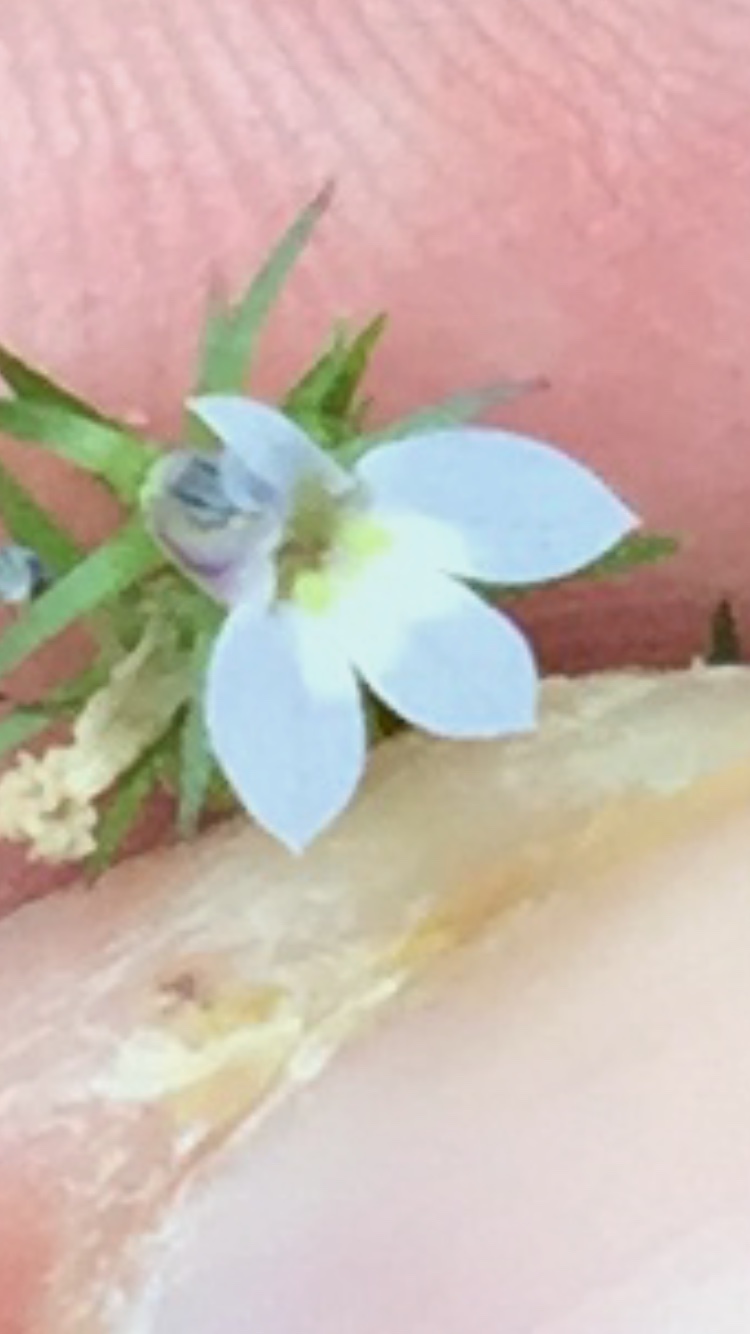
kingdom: Plantae
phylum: Tracheophyta
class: Magnoliopsida
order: Asterales
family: Campanulaceae
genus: Lobelia
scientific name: Lobelia inflata
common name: Indian tobacco
